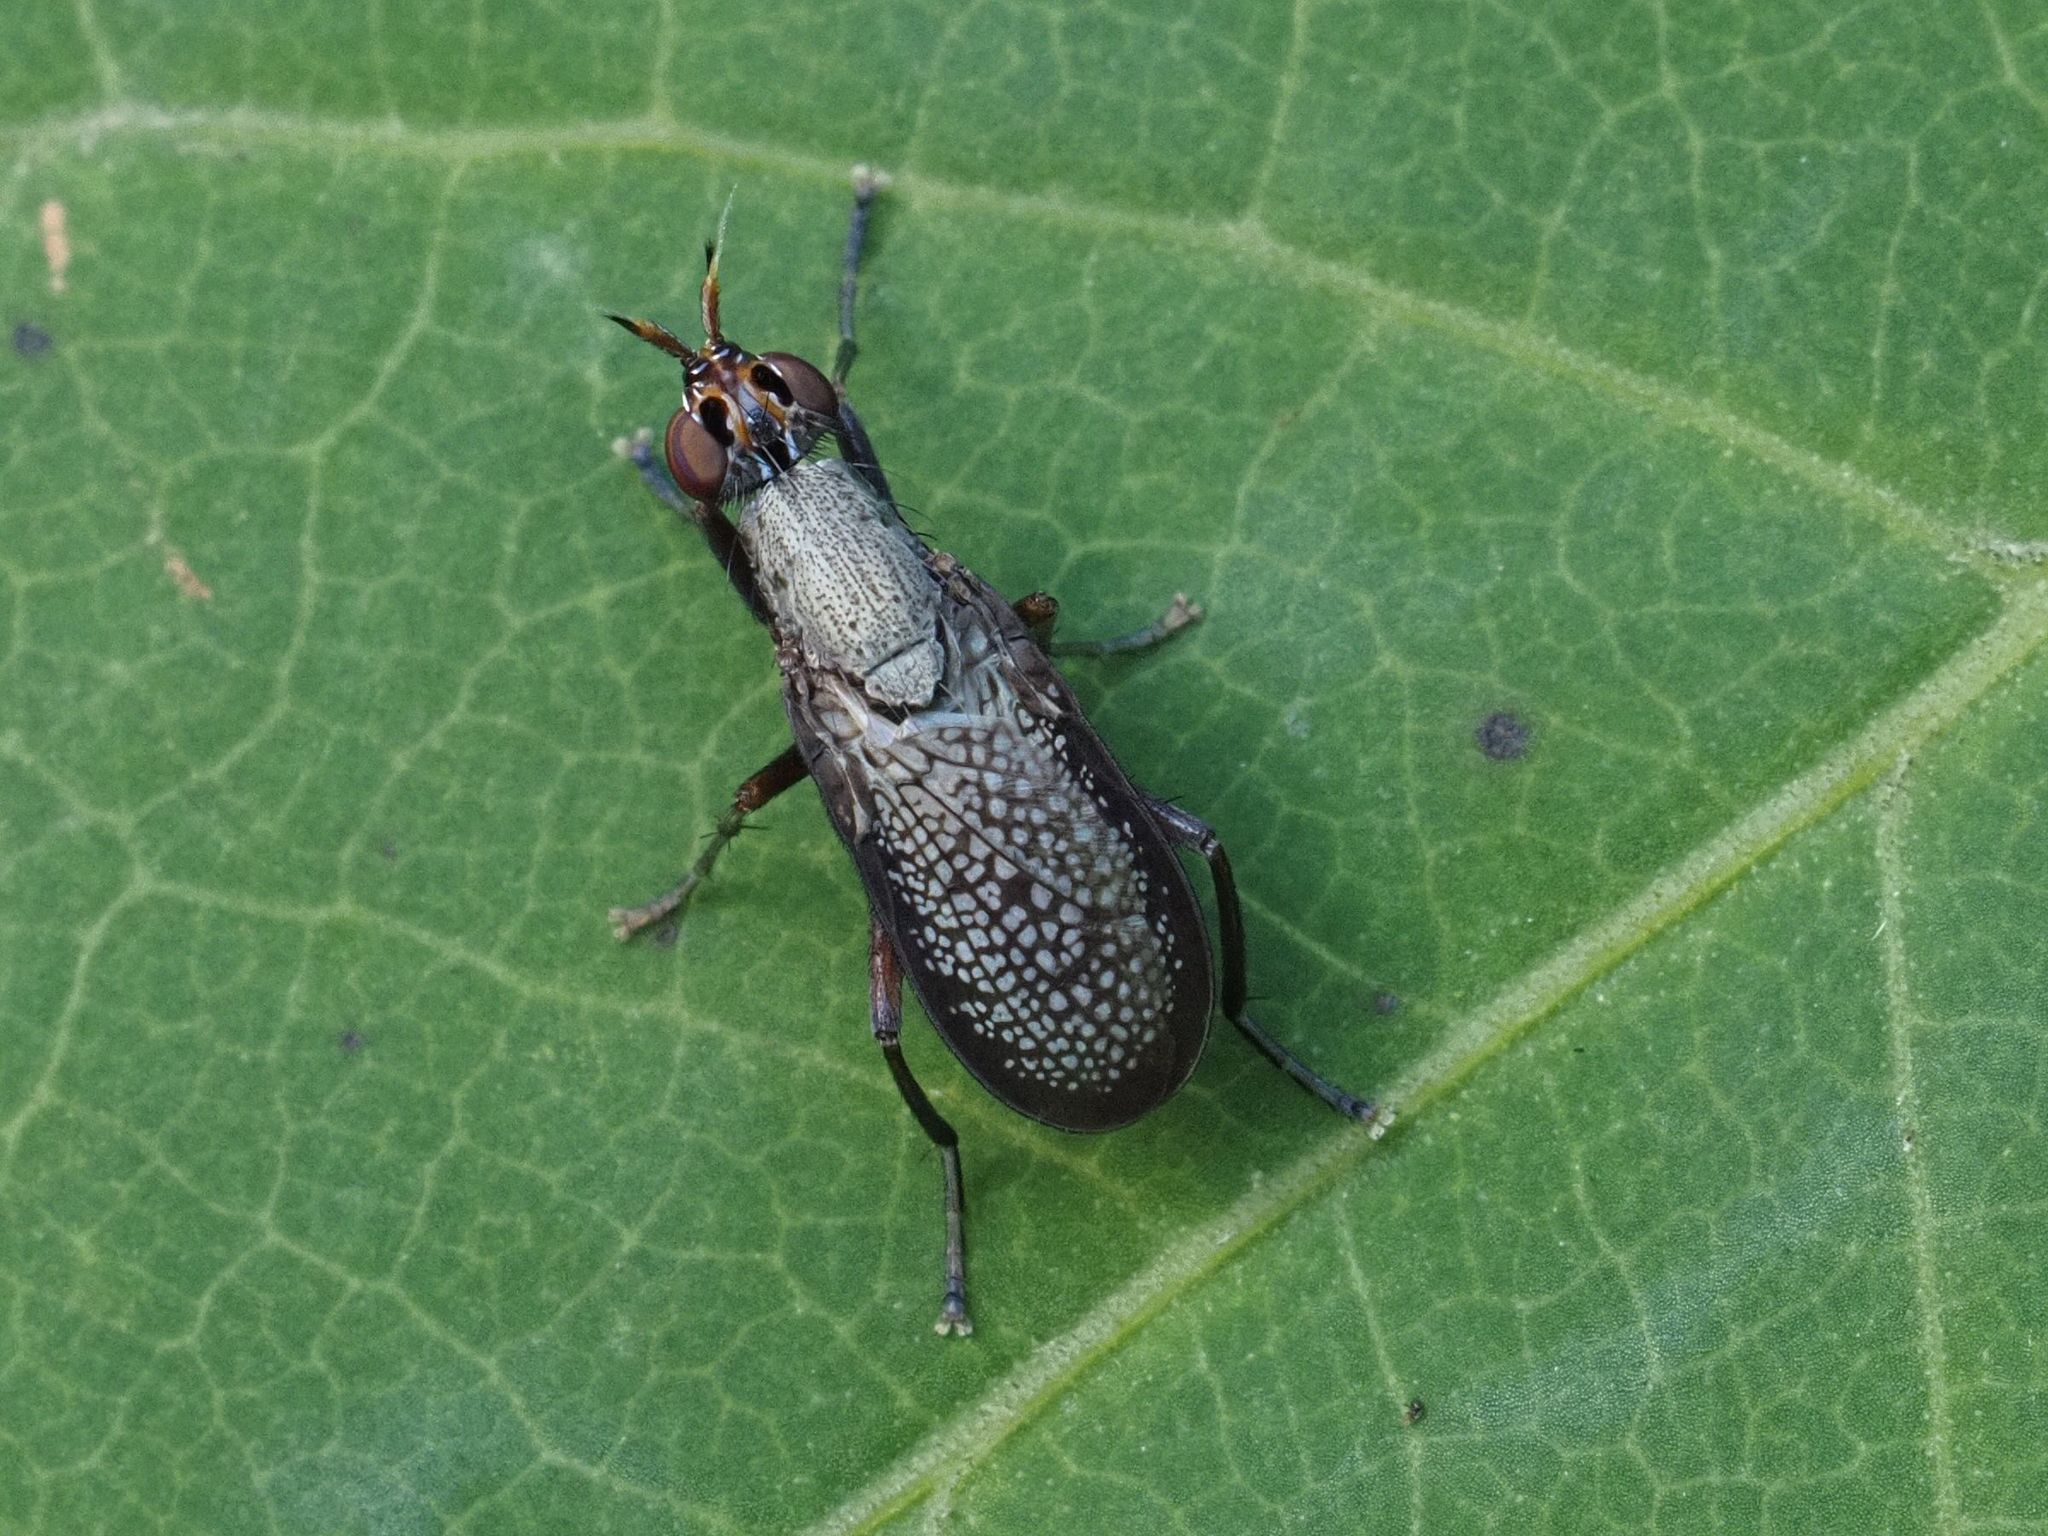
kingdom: Animalia
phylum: Arthropoda
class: Insecta
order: Diptera
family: Sciomyzidae
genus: Coremacera
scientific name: Coremacera marginata
